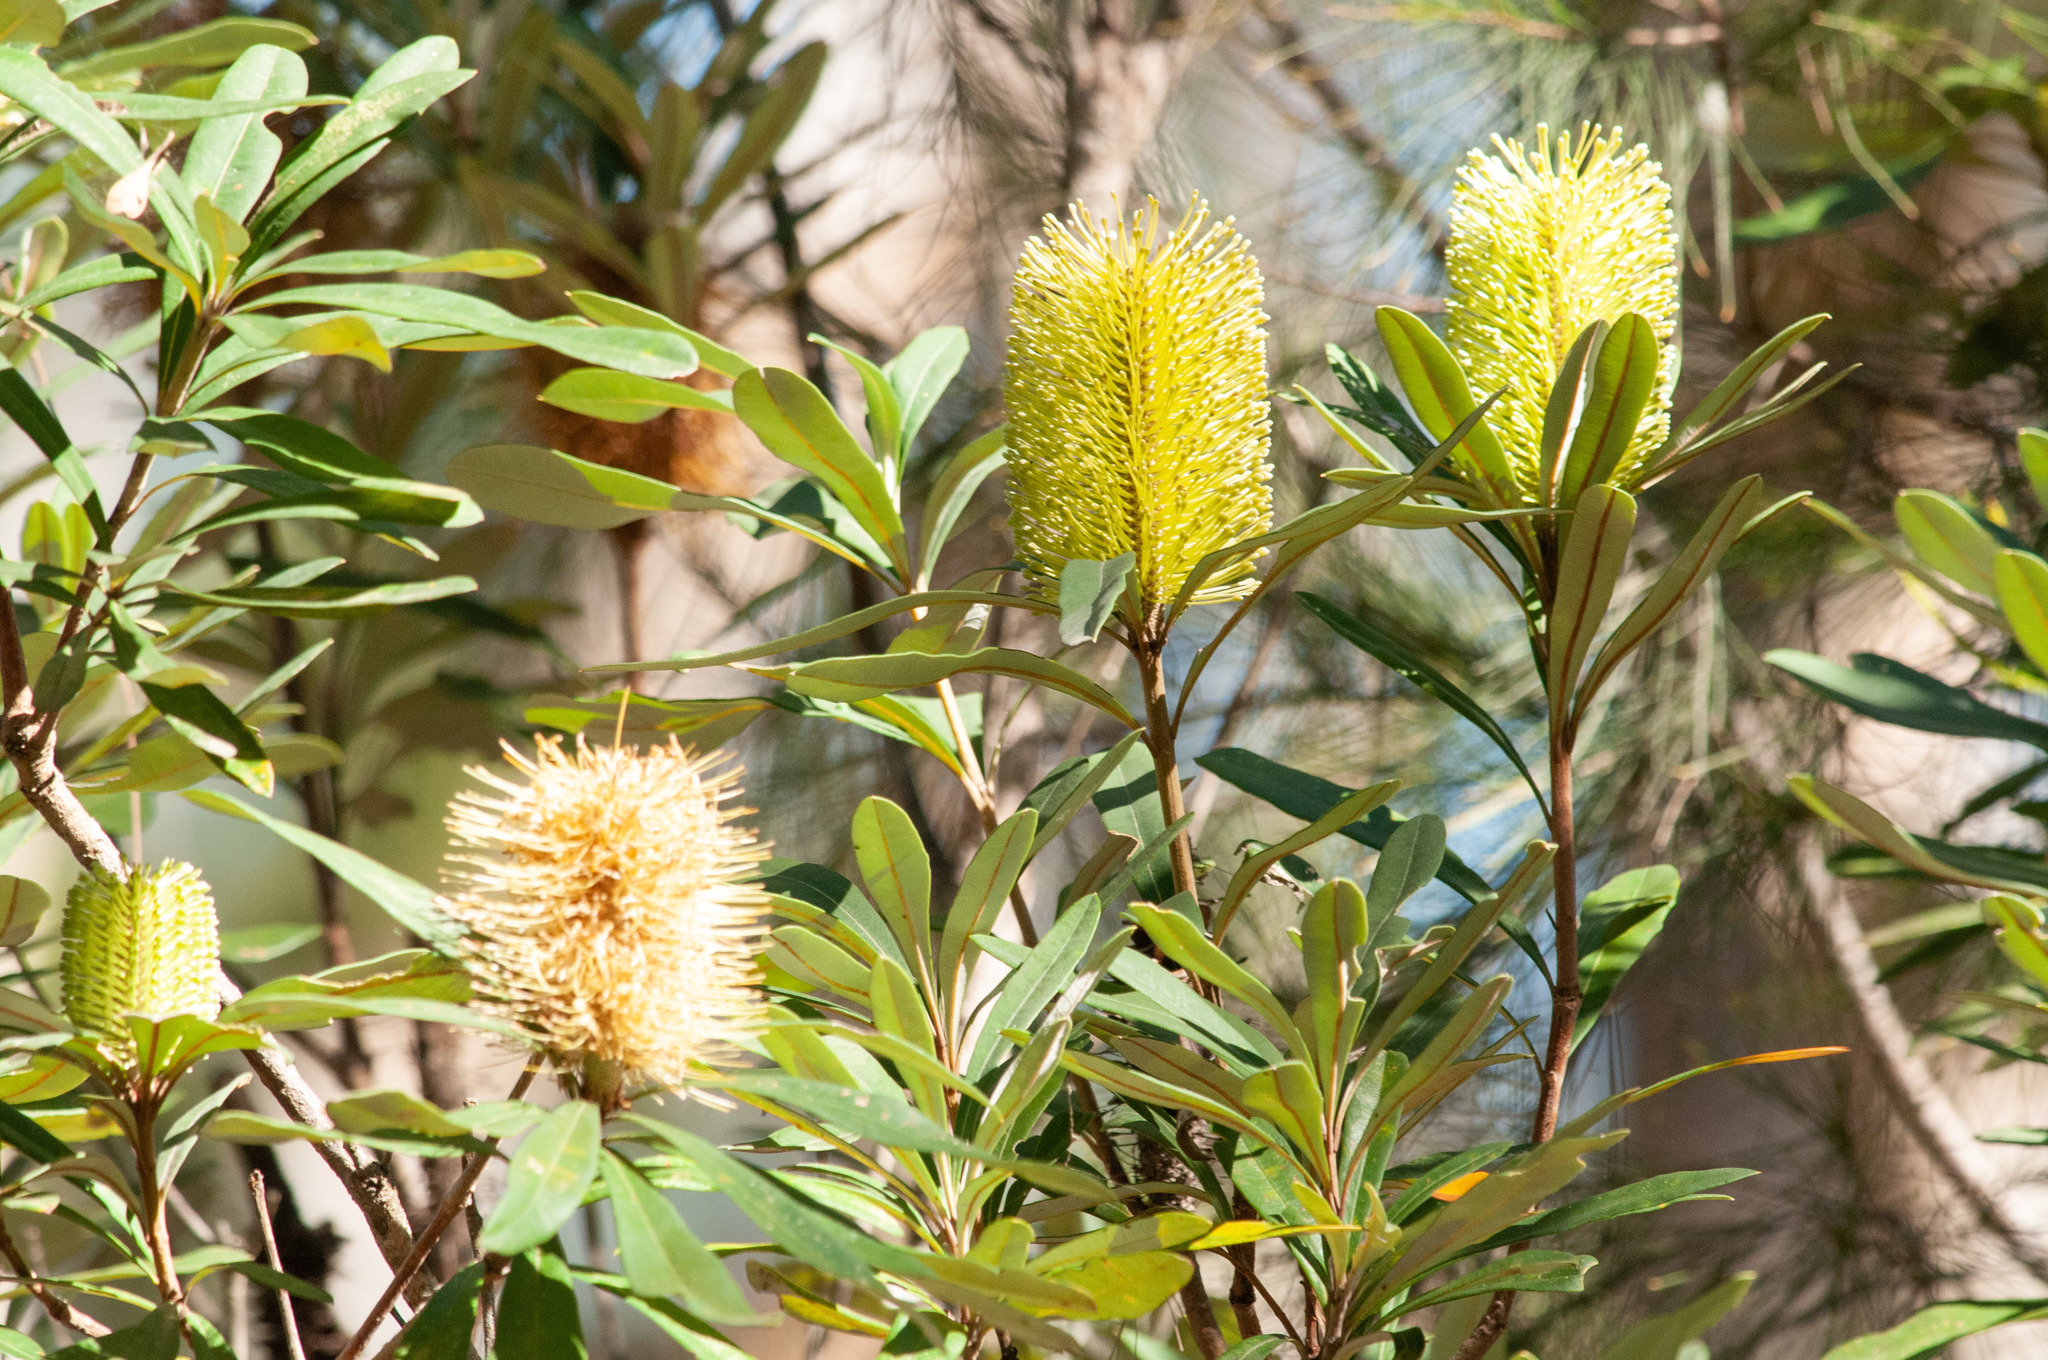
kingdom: Plantae
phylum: Tracheophyta
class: Magnoliopsida
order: Proteales
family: Proteaceae
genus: Banksia
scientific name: Banksia integrifolia
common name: White-honeysuckle
